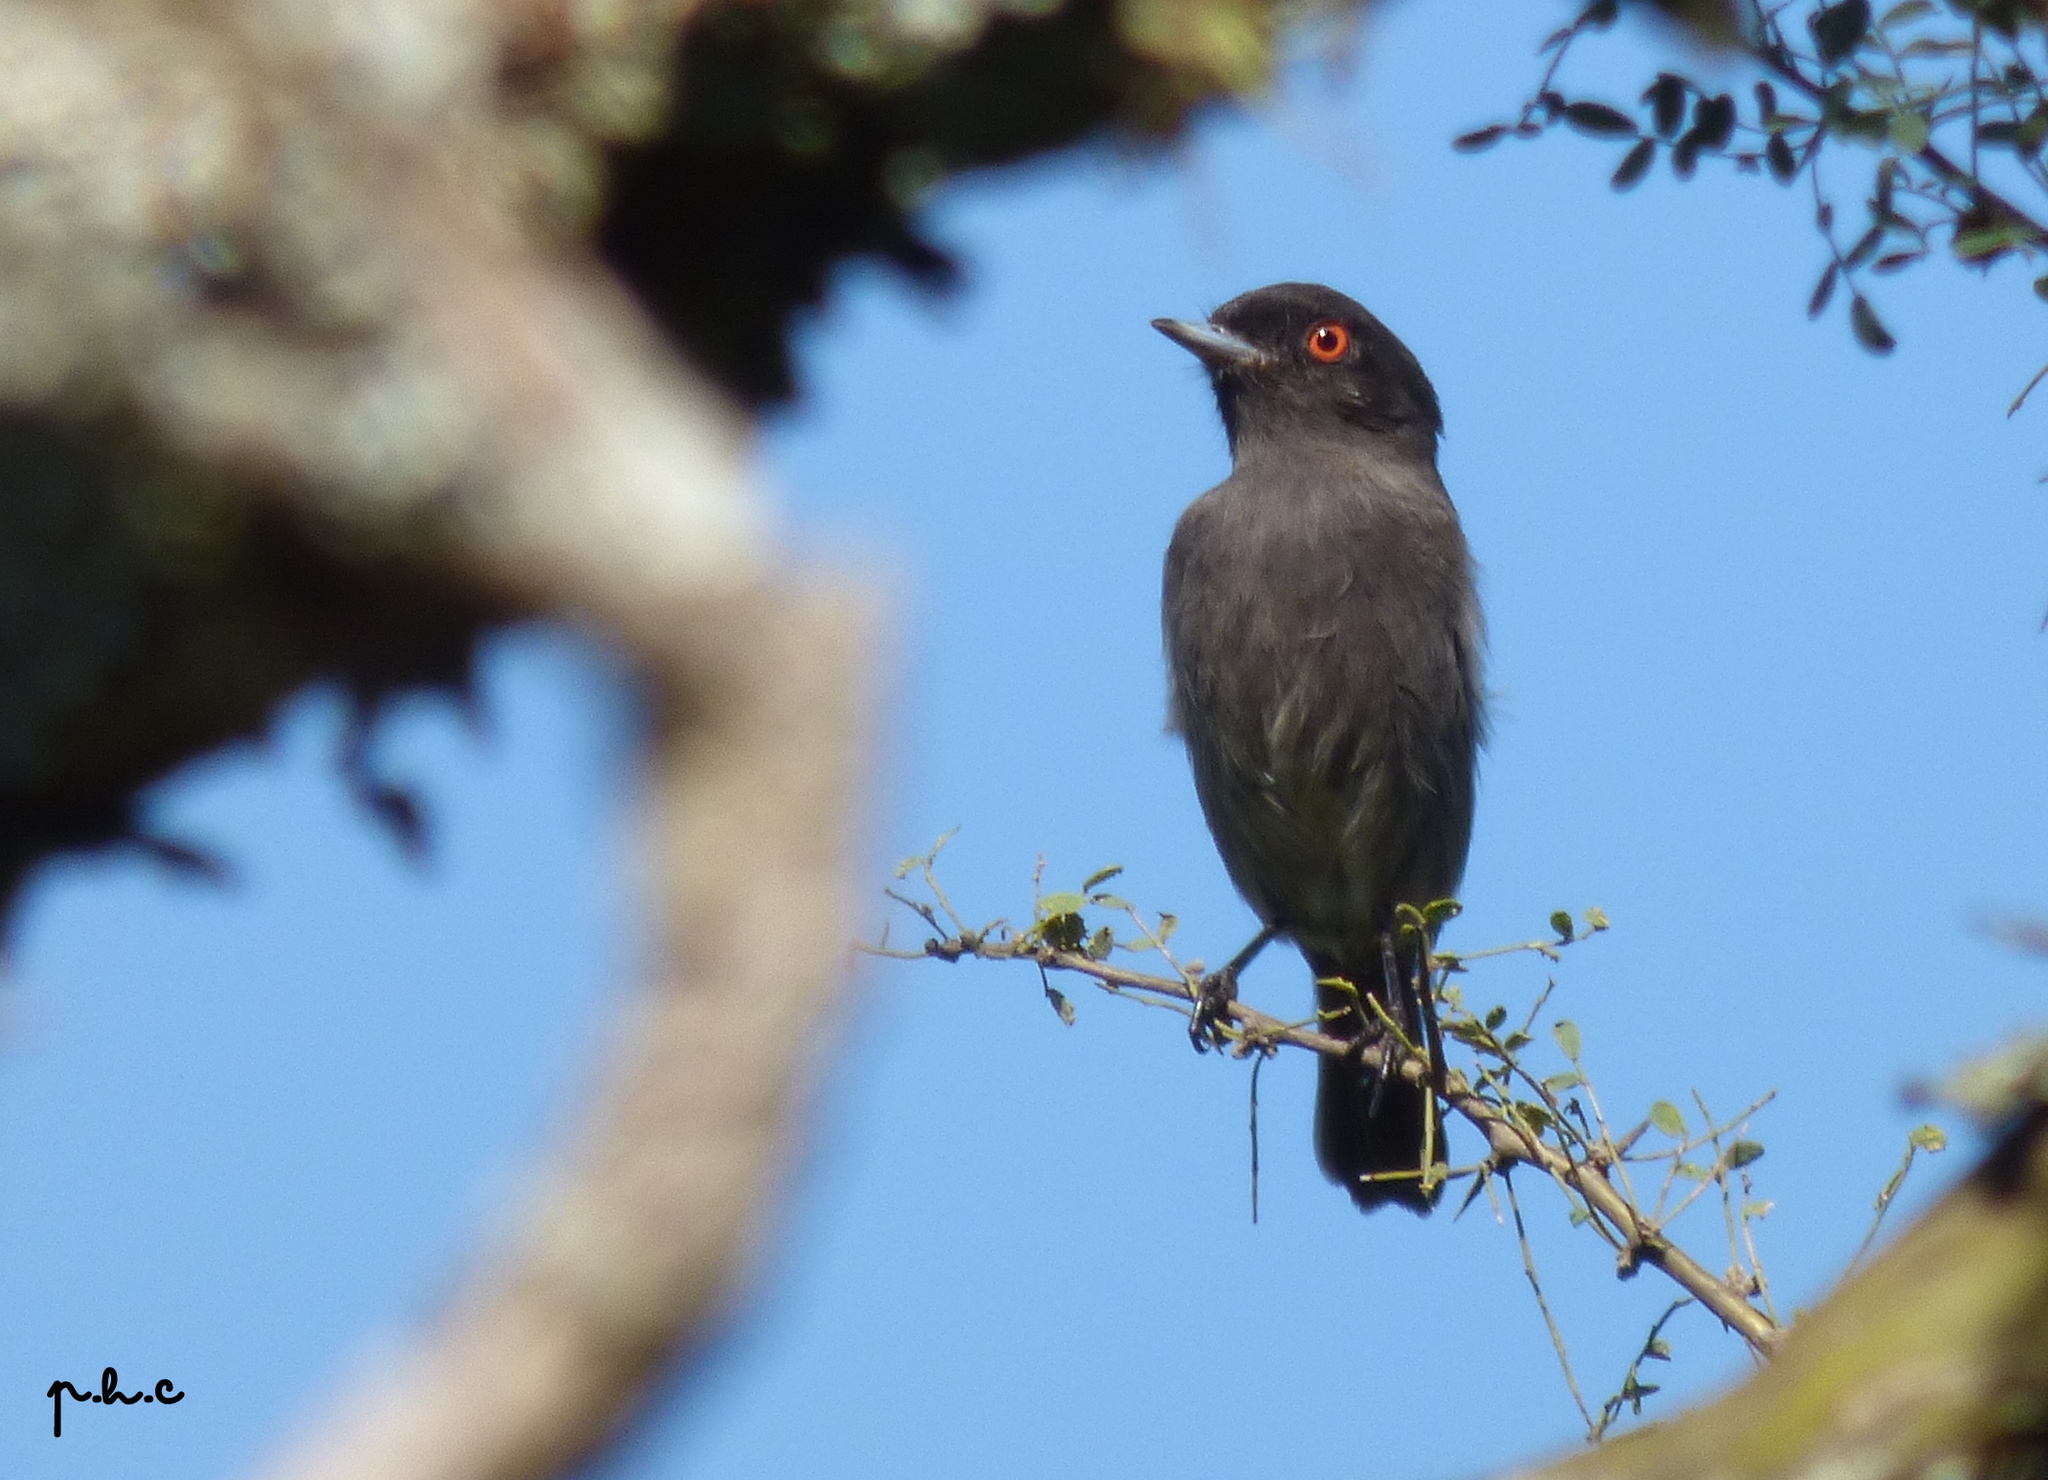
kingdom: Animalia
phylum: Chordata
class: Aves
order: Passeriformes
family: Tyrannidae
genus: Knipolegus
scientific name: Knipolegus striaticeps
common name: Cinereous tyrant
